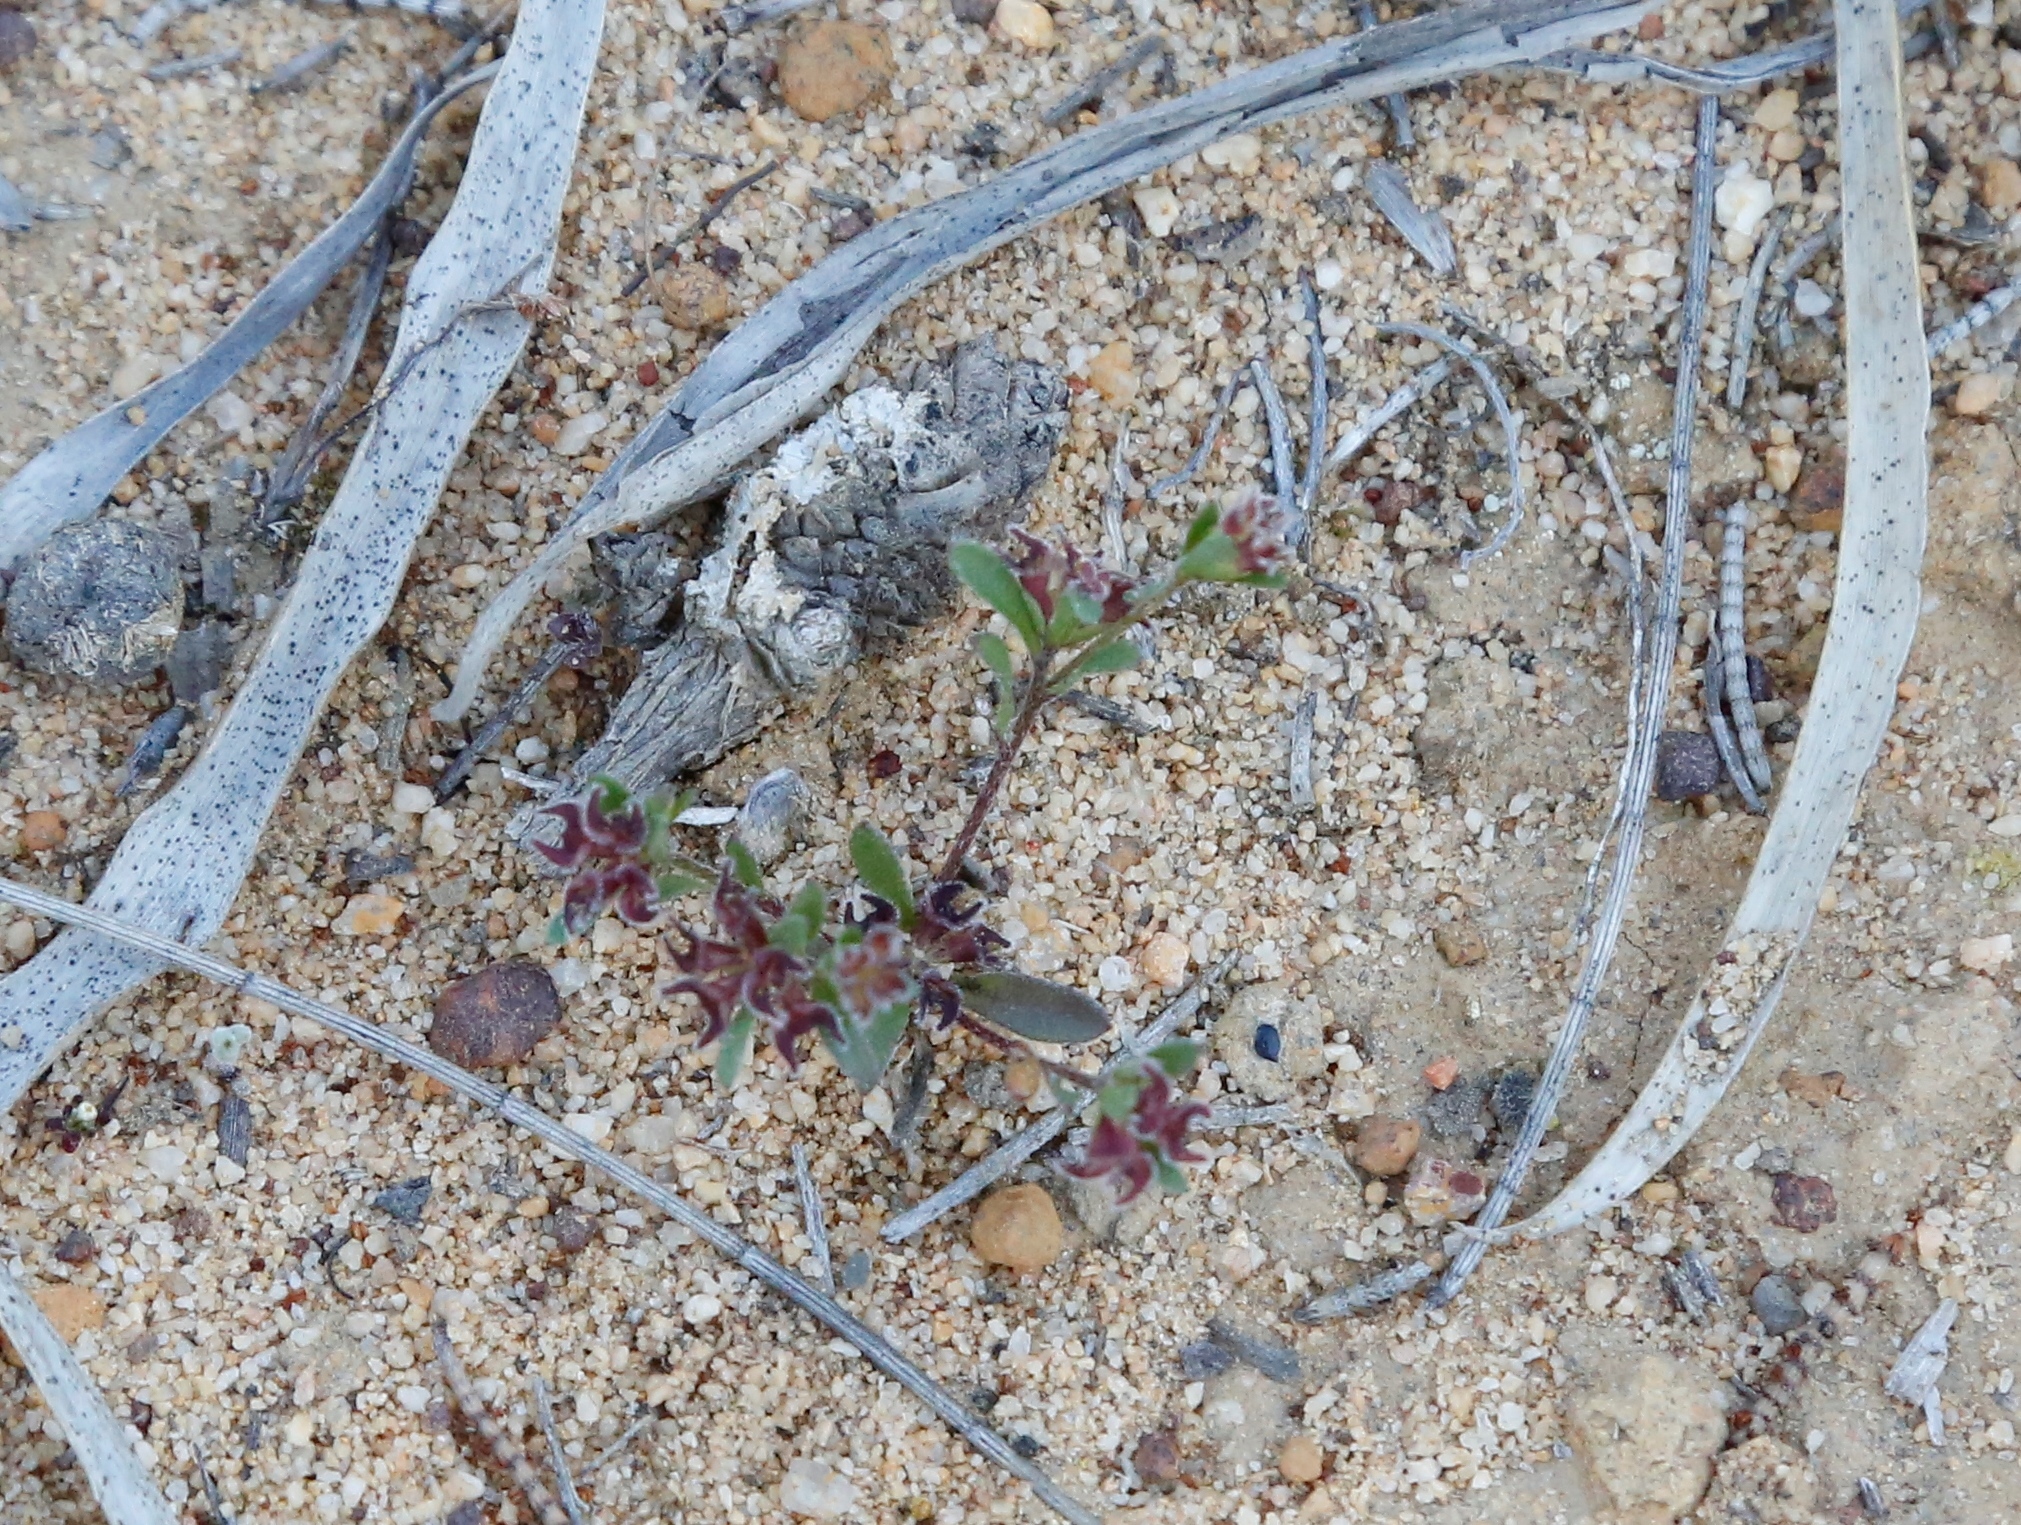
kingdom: Plantae
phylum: Tracheophyta
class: Magnoliopsida
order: Asterales
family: Asteraceae
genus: Ceratogyne
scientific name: Ceratogyne obionoides
